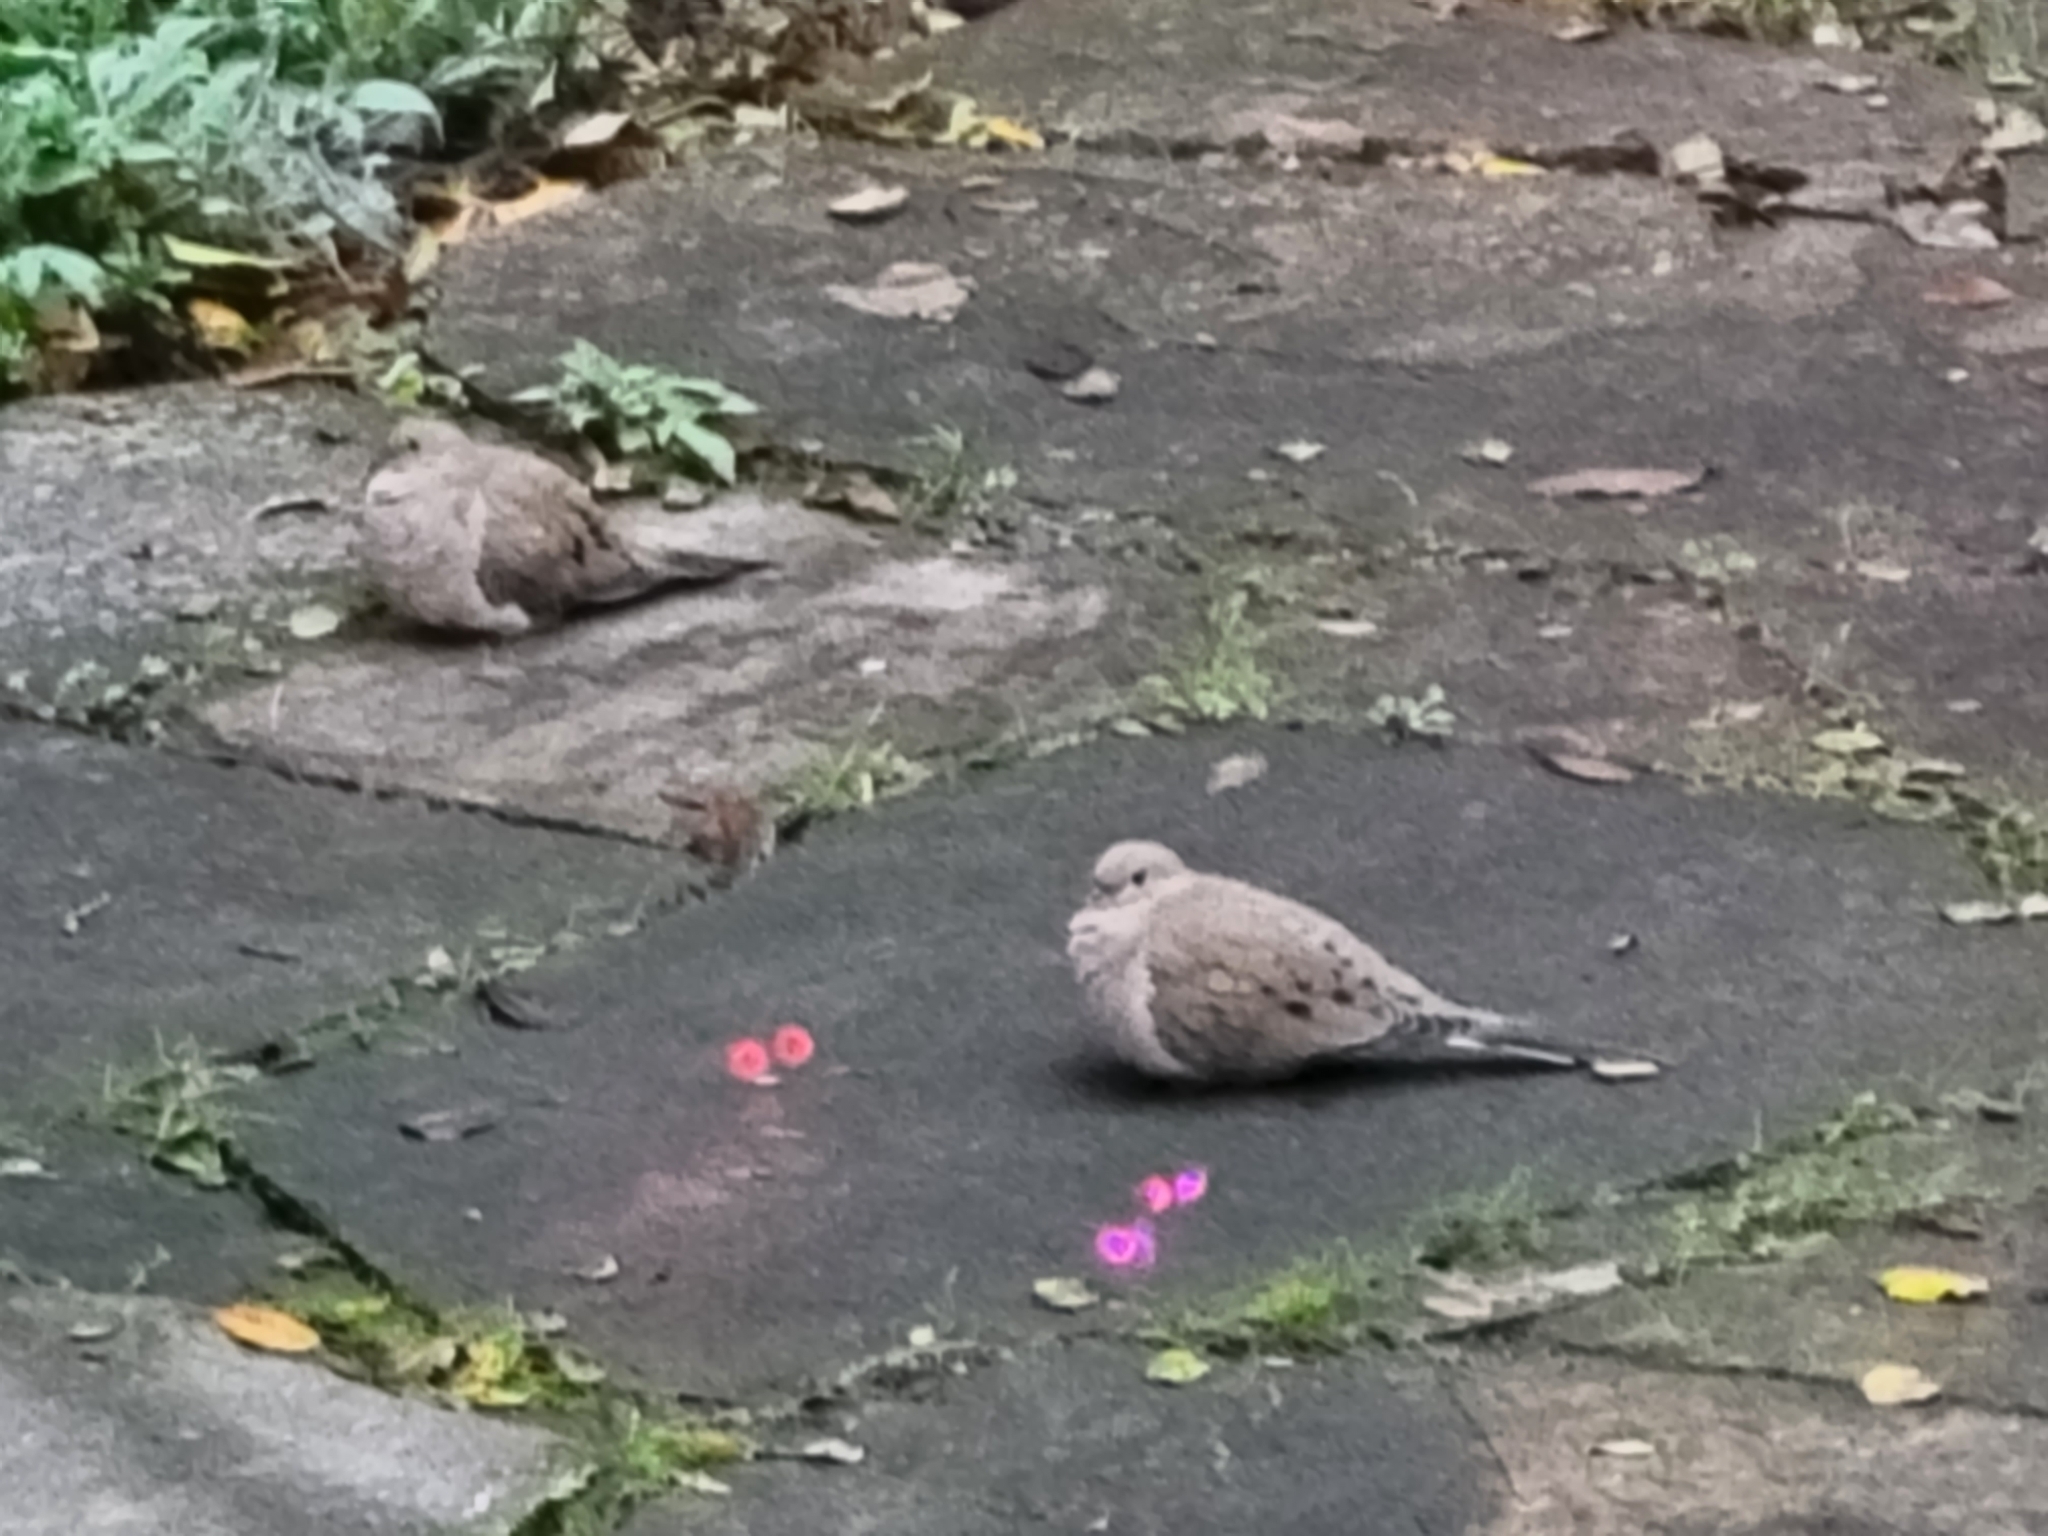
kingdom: Animalia
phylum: Chordata
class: Aves
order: Columbiformes
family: Columbidae
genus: Zenaida
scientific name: Zenaida macroura
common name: Mourning dove
